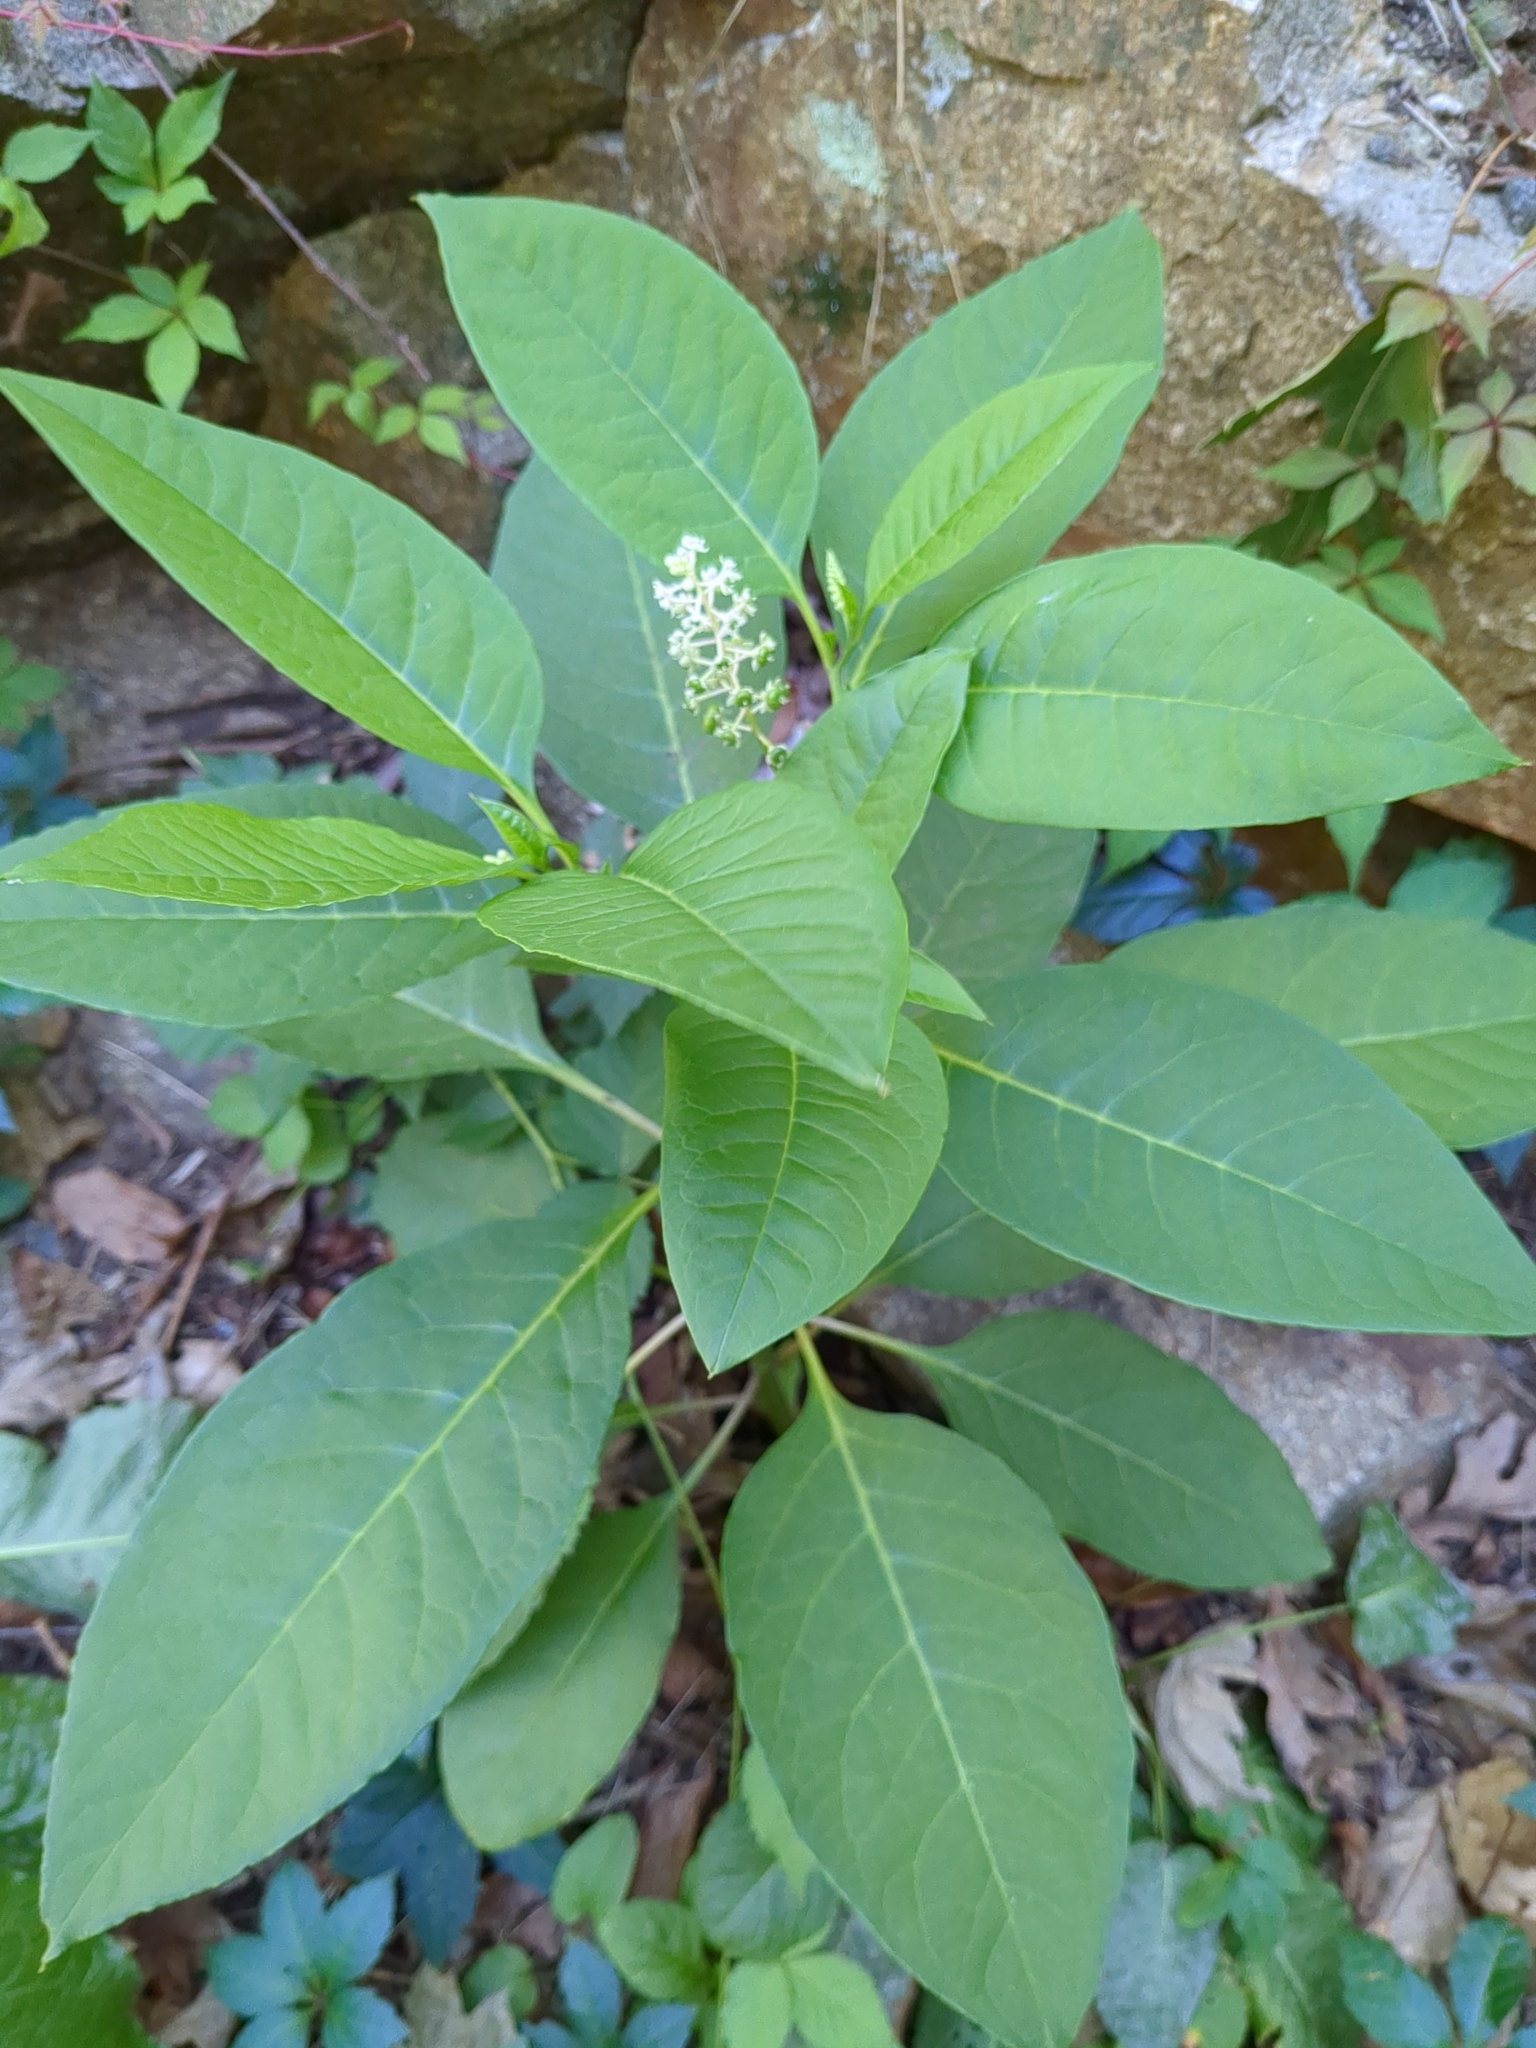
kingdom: Plantae
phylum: Tracheophyta
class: Magnoliopsida
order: Caryophyllales
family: Phytolaccaceae
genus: Phytolacca
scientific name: Phytolacca americana
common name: American pokeweed
